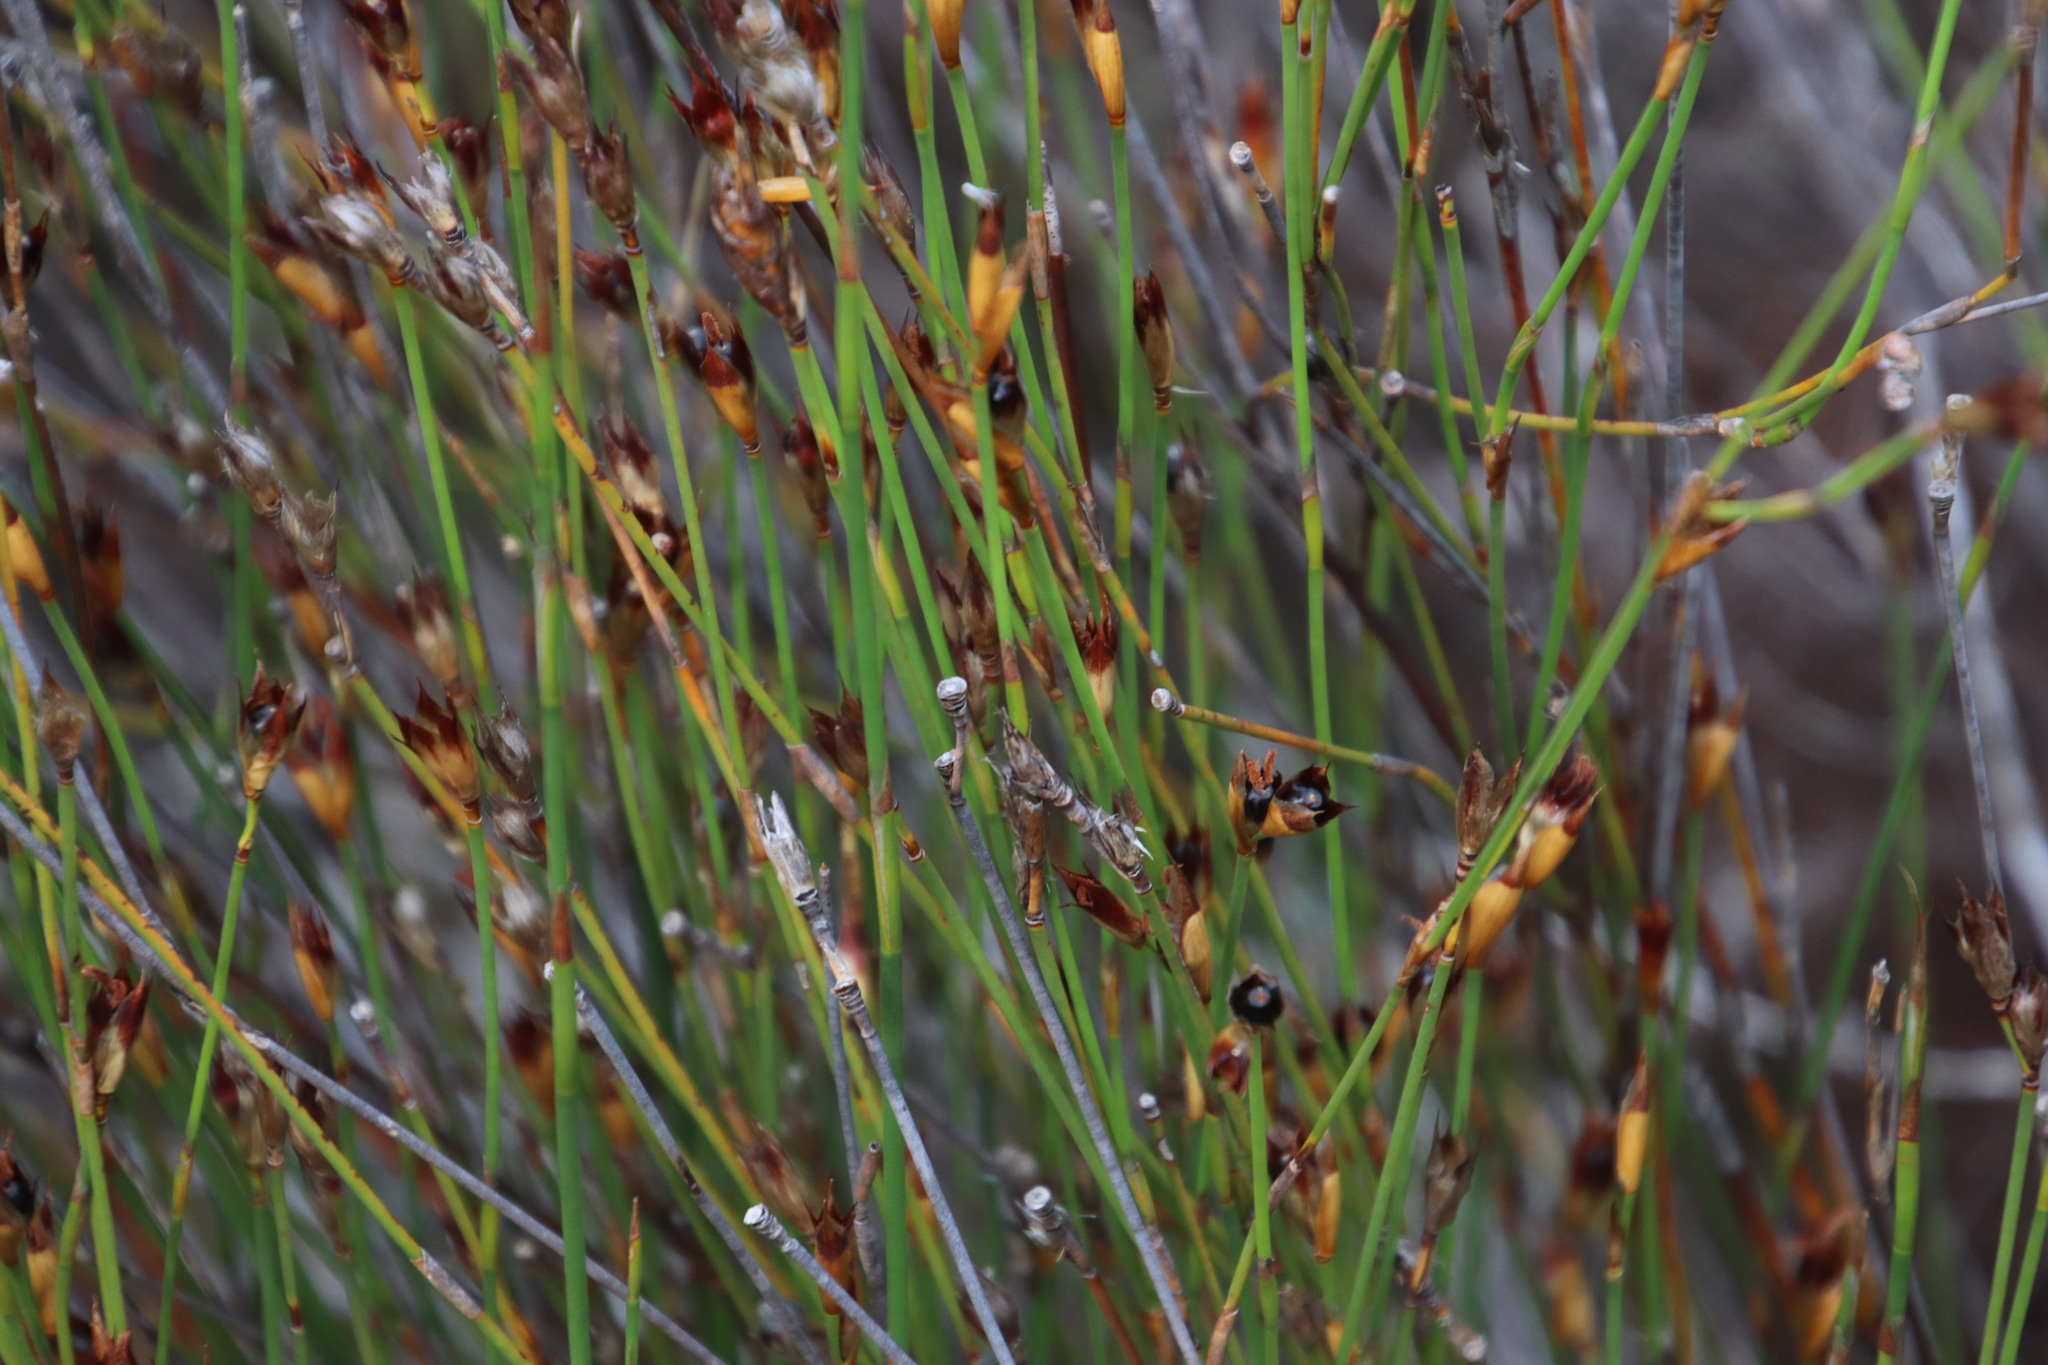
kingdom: Plantae
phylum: Tracheophyta
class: Liliopsida
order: Poales
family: Restionaceae
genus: Willdenowia
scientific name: Willdenowia teres
